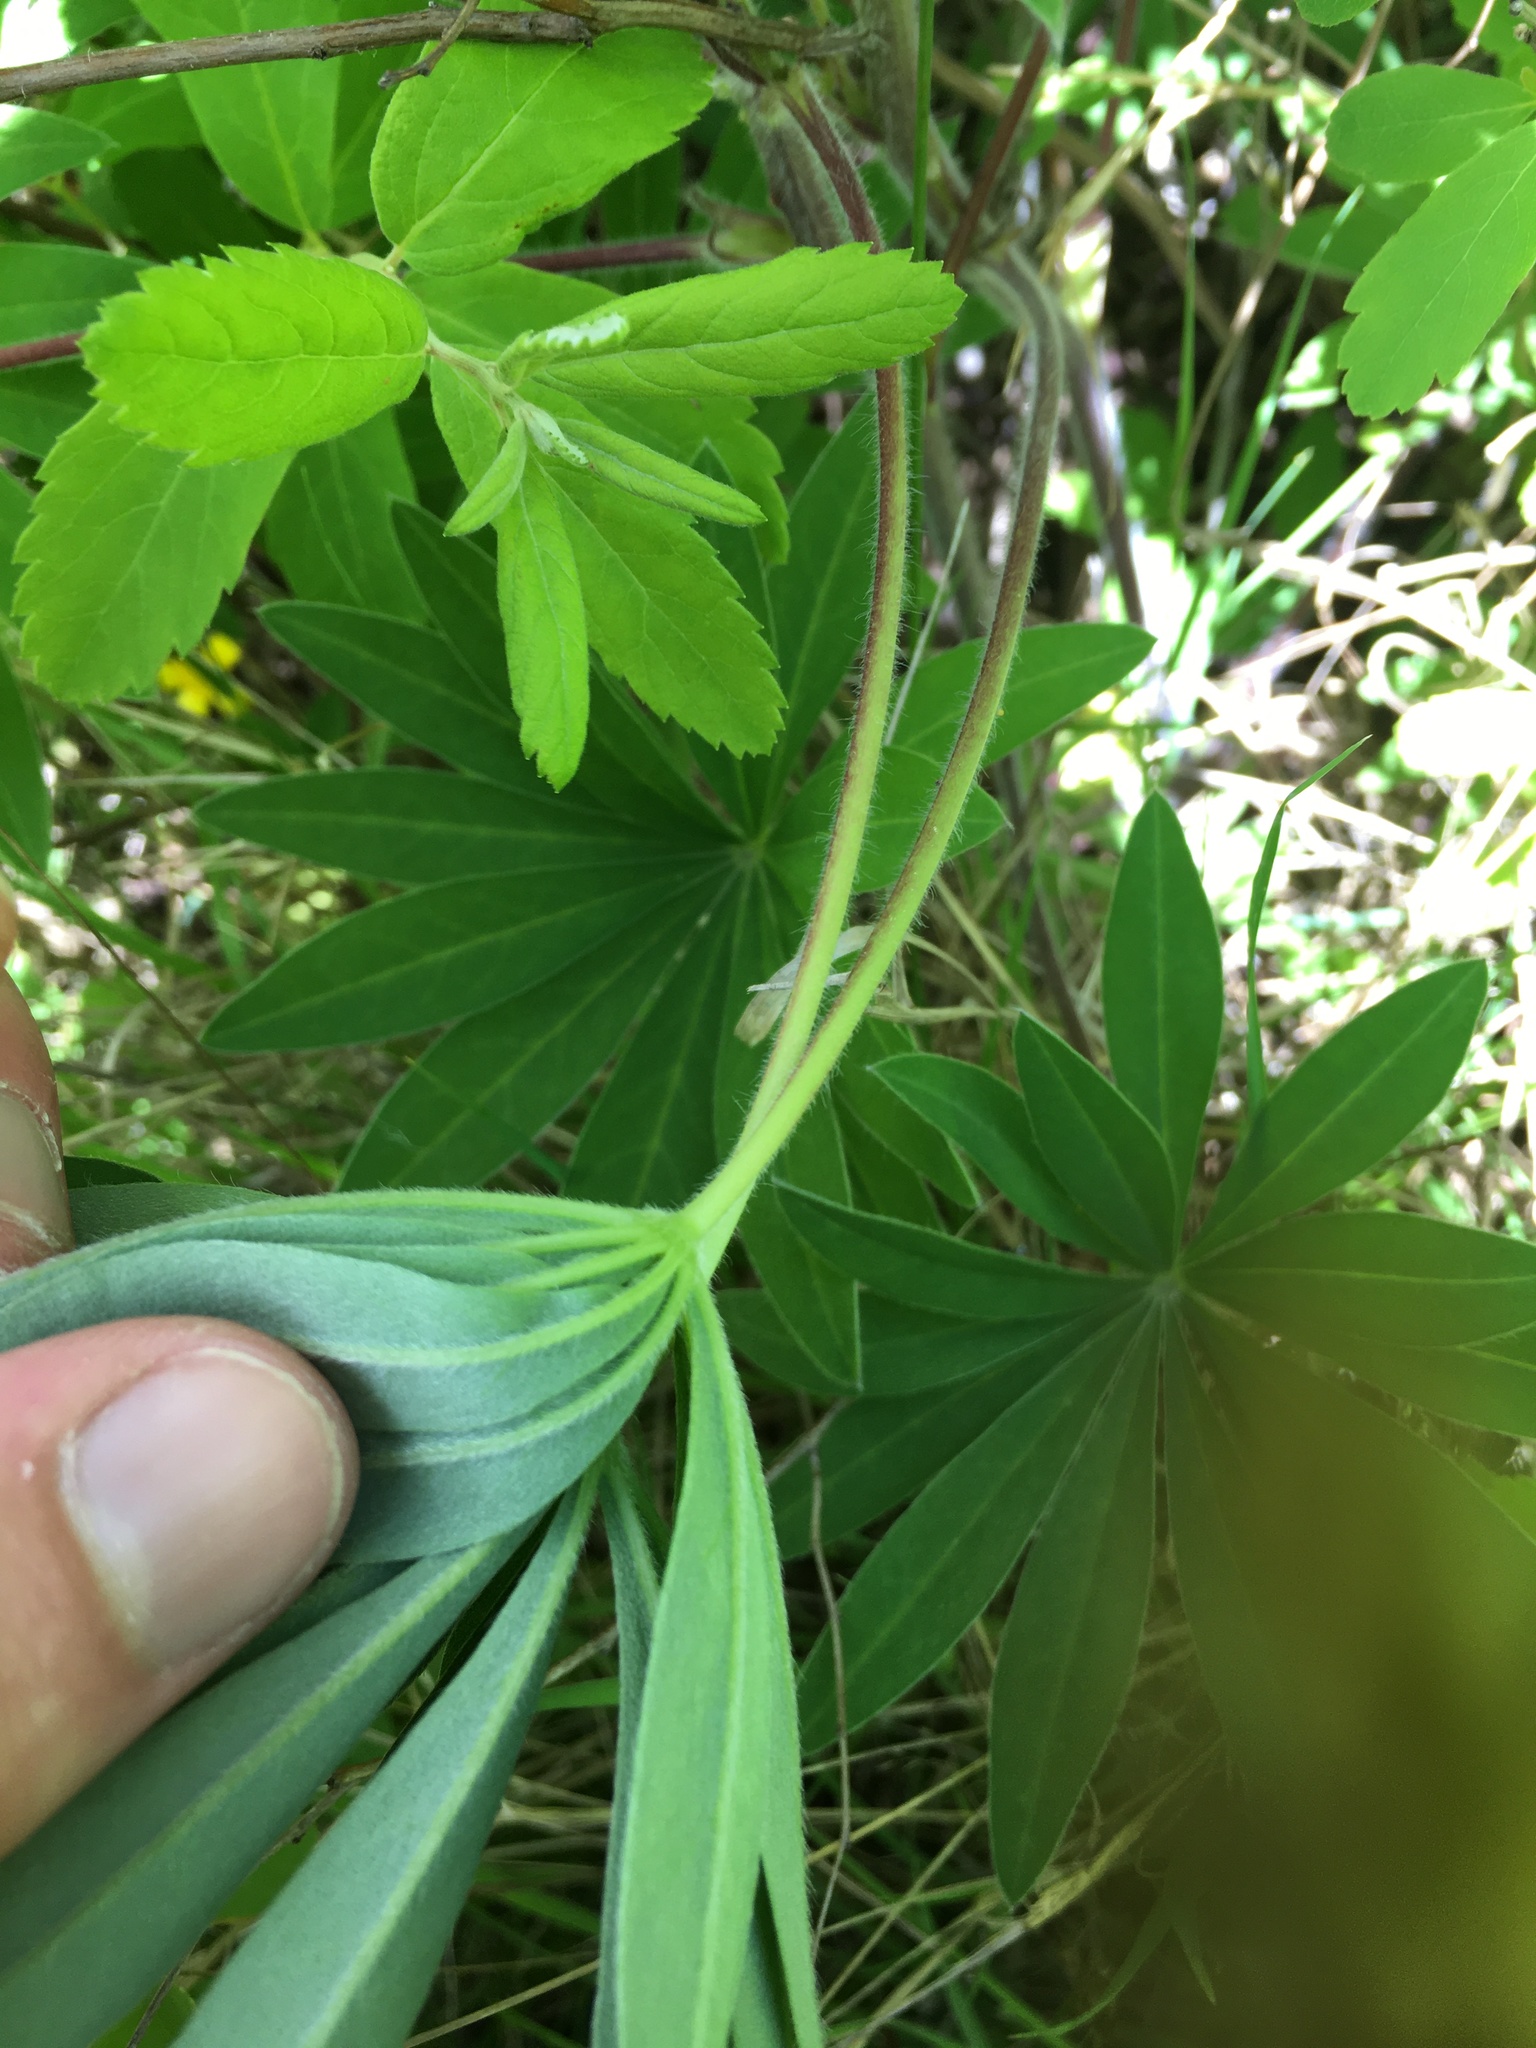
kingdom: Plantae
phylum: Tracheophyta
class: Magnoliopsida
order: Fabales
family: Fabaceae
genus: Lupinus
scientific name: Lupinus polyphyllus
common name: Garden lupin
